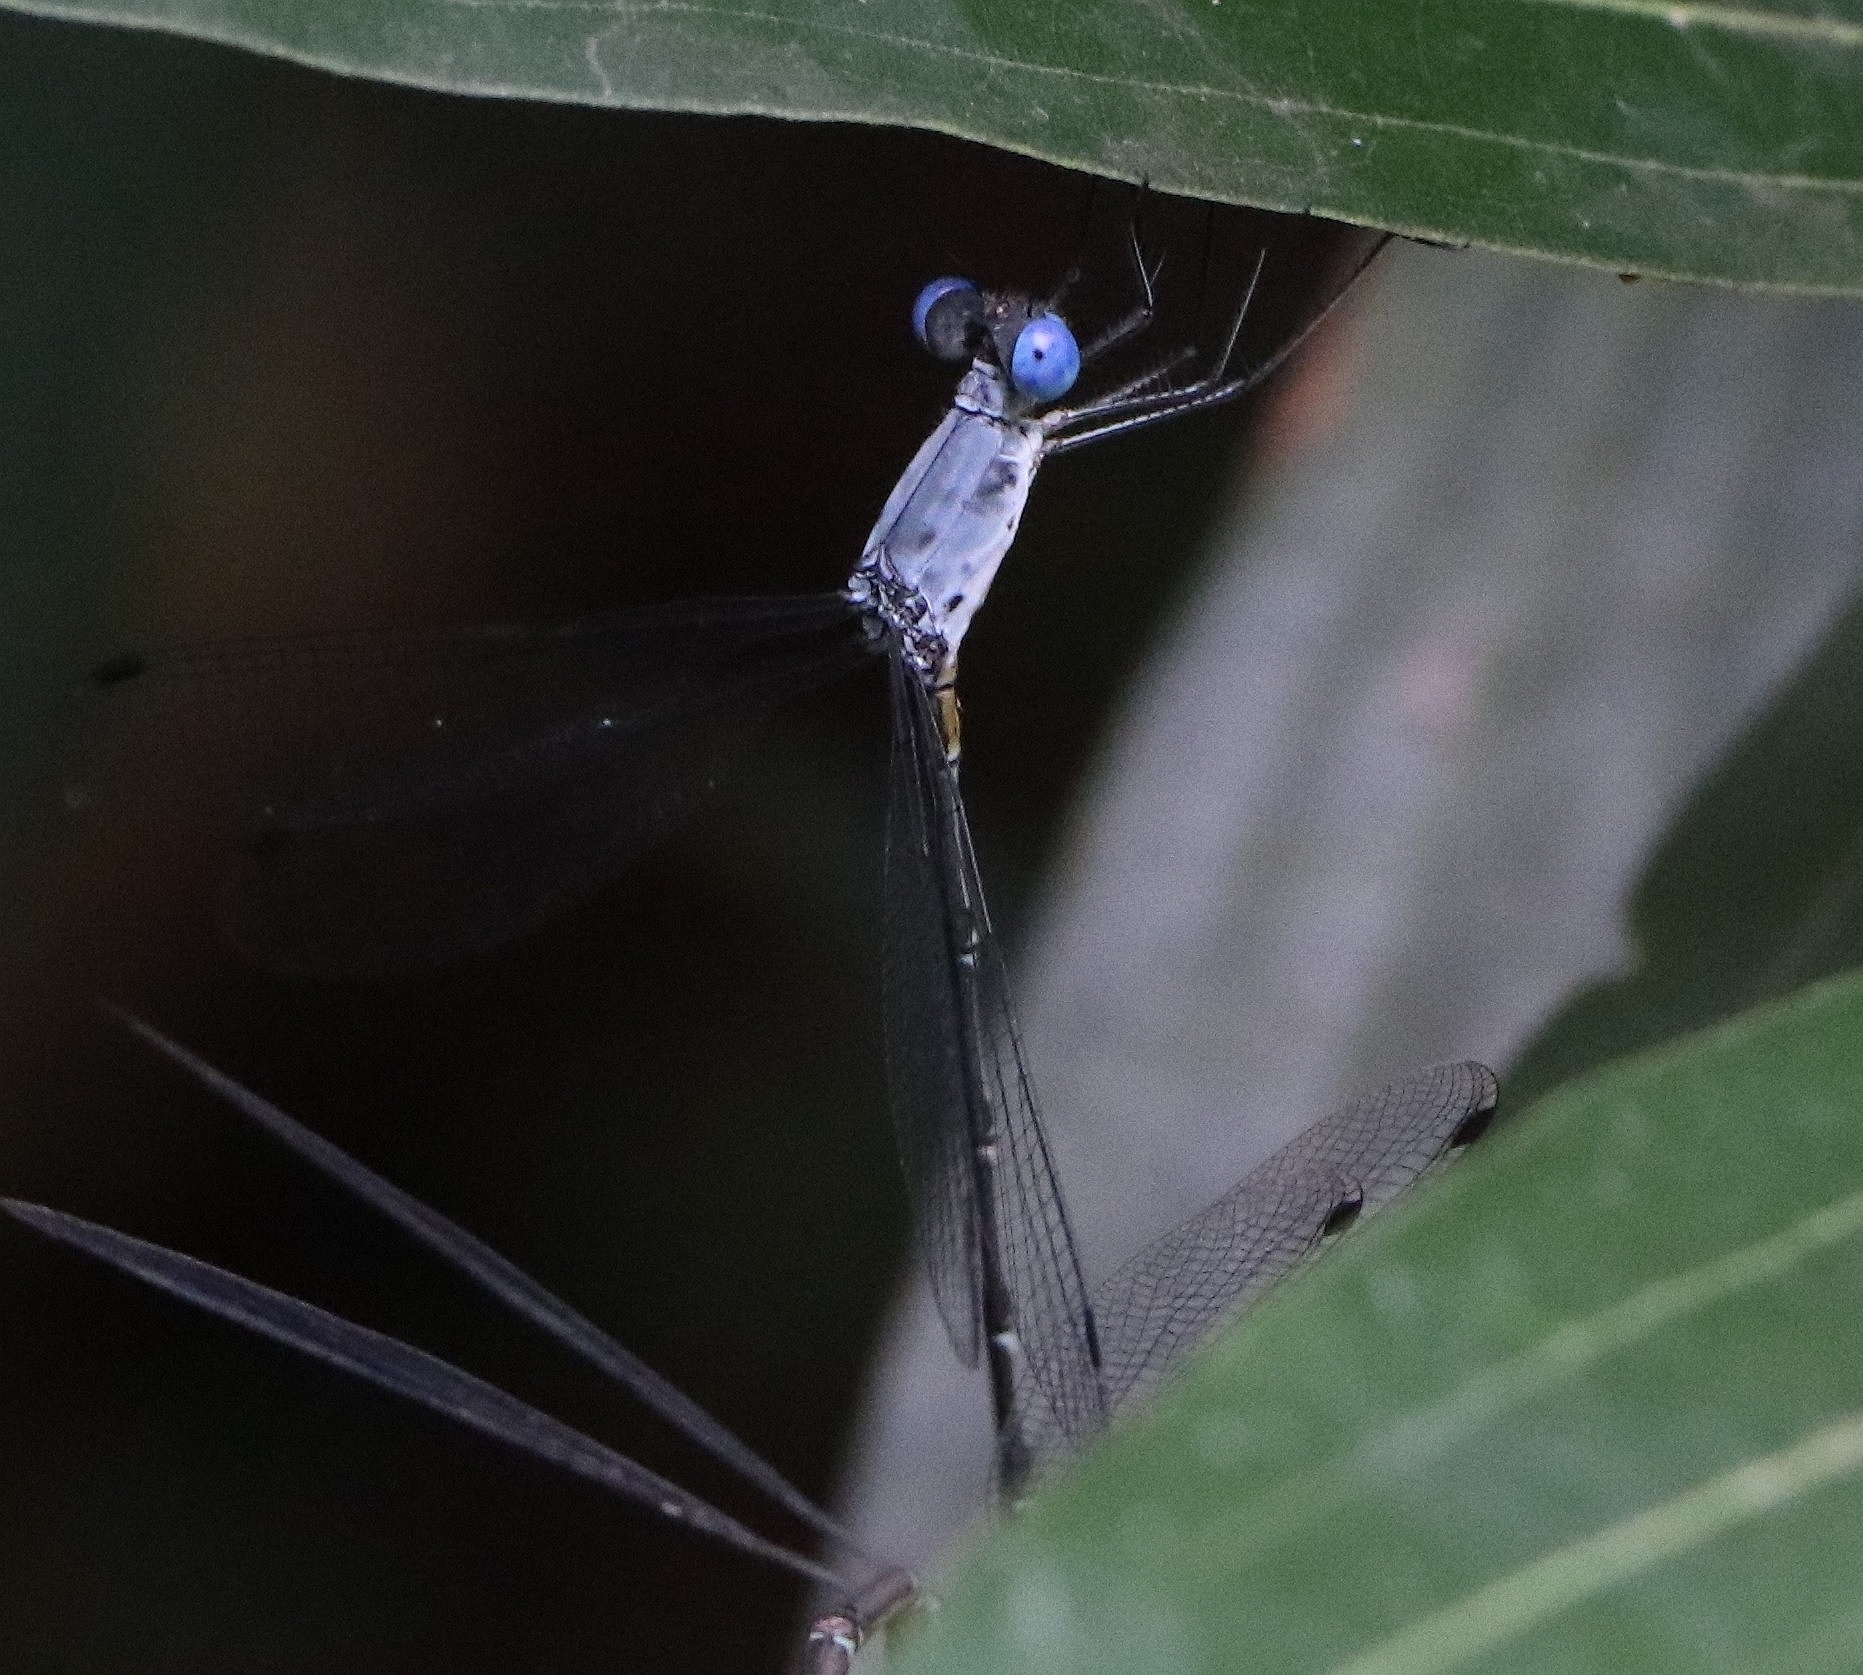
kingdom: Animalia
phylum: Arthropoda
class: Insecta
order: Odonata
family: Lestidae
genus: Lestes
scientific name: Lestes dorothea
